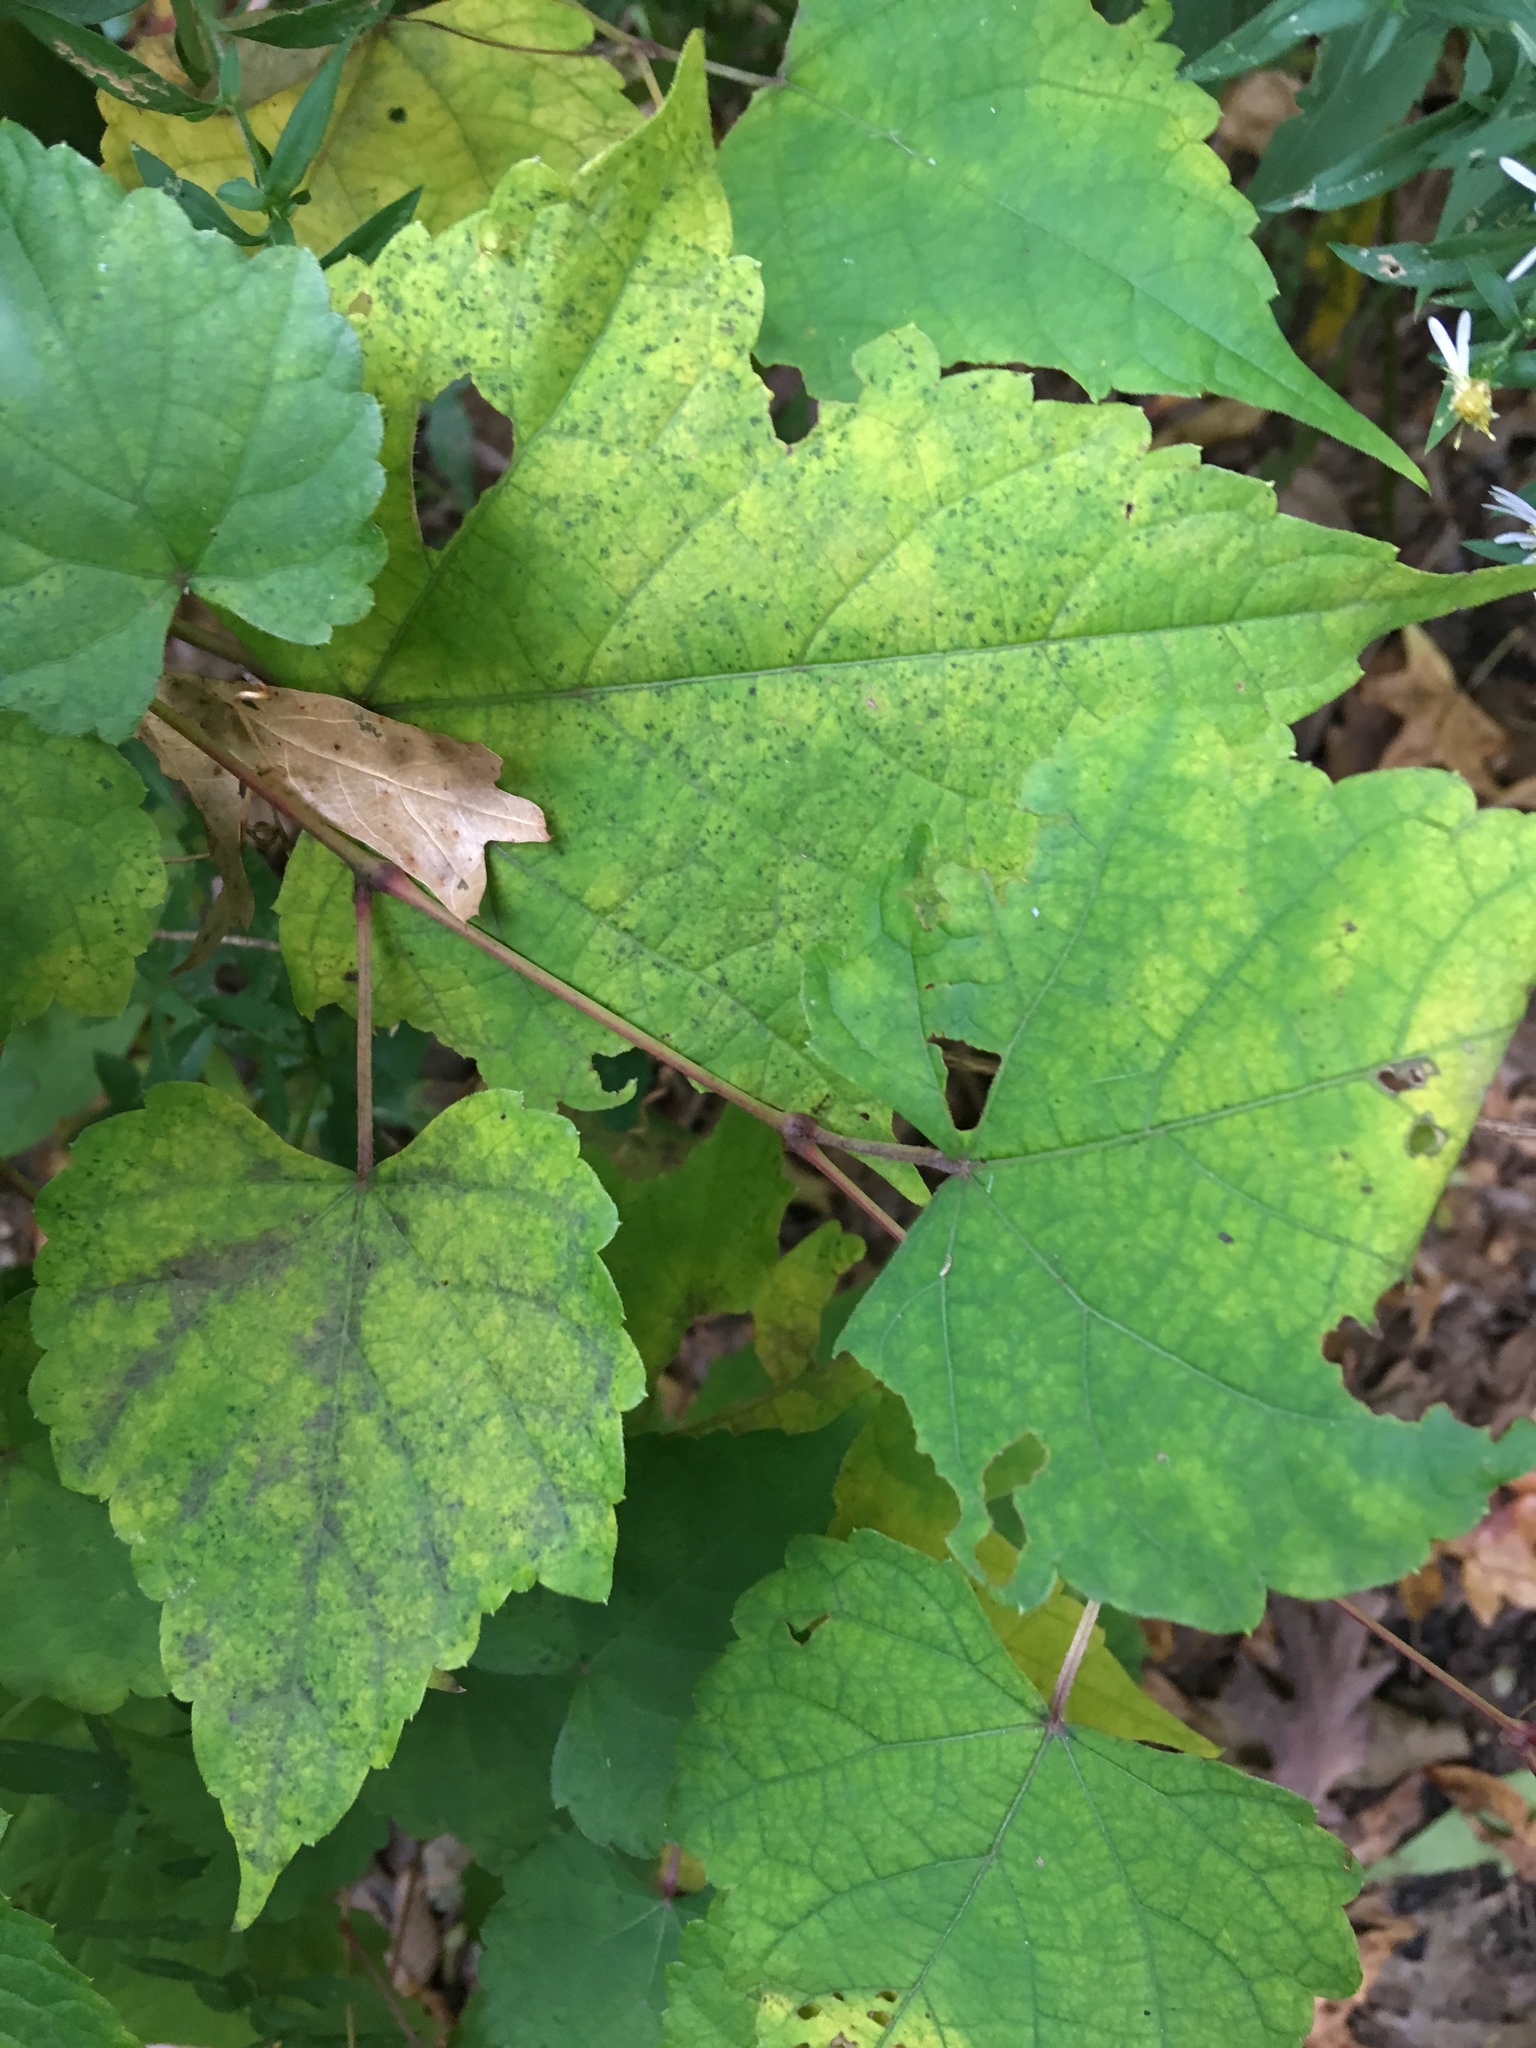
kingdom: Plantae
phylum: Tracheophyta
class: Magnoliopsida
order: Vitales
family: Vitaceae
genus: Ampelopsis
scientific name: Ampelopsis glandulosa
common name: Amur peppervine
